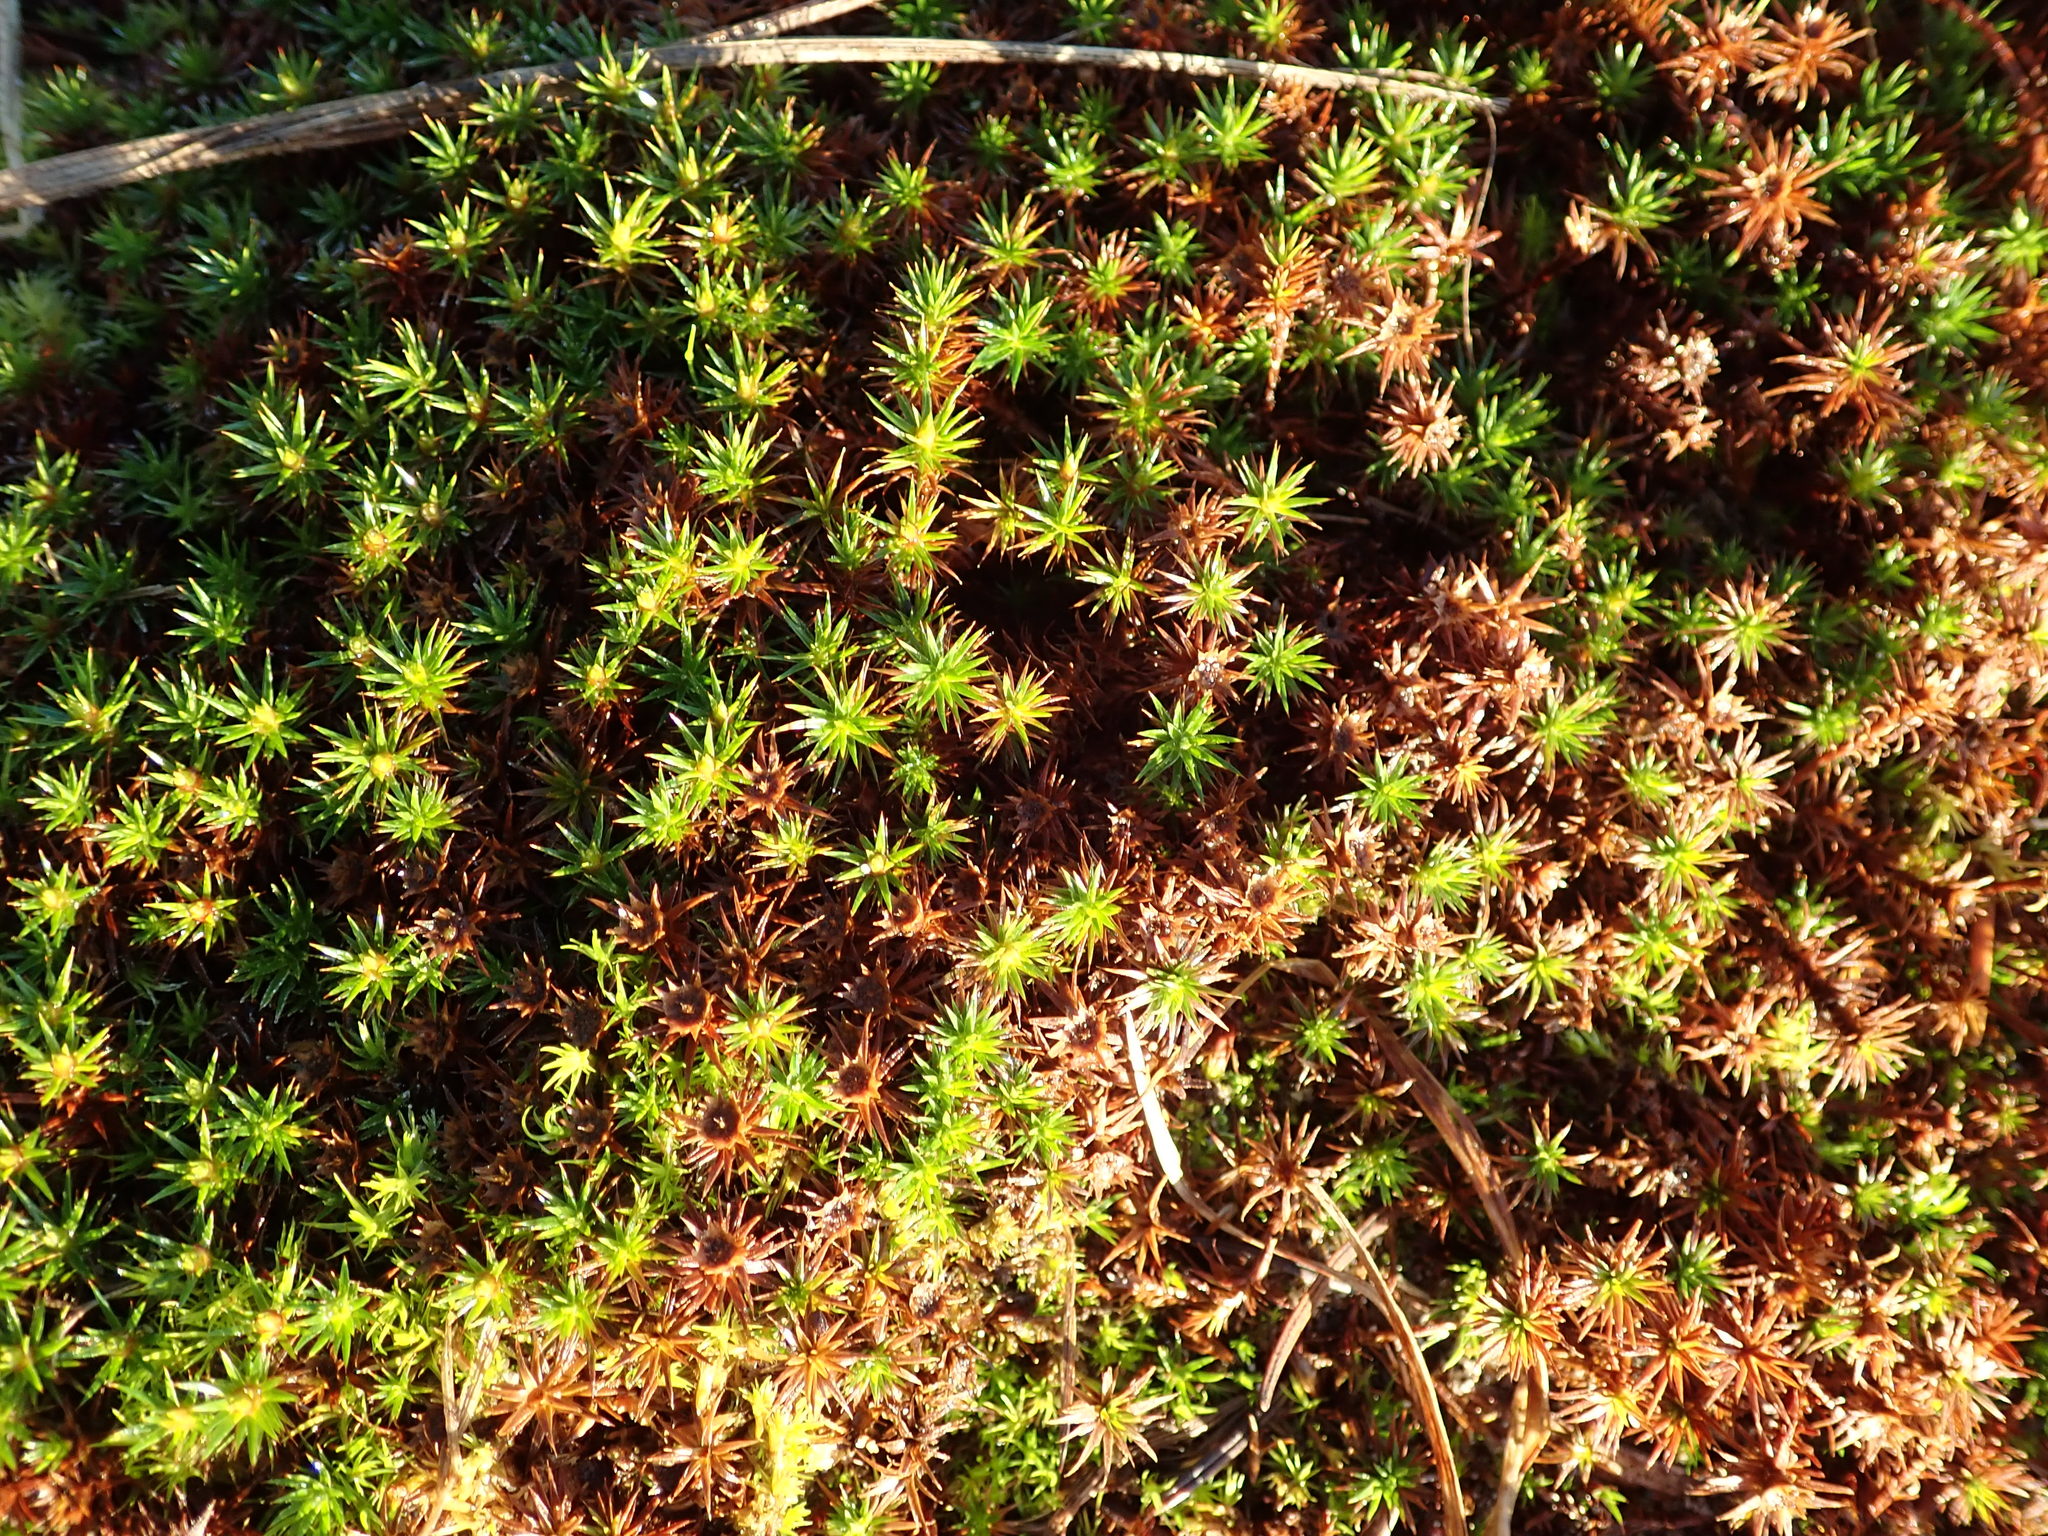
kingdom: Plantae
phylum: Bryophyta
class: Polytrichopsida
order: Polytrichales
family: Polytrichaceae
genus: Polytrichum
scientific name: Polytrichum juniperinum
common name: Juniper haircap moss
